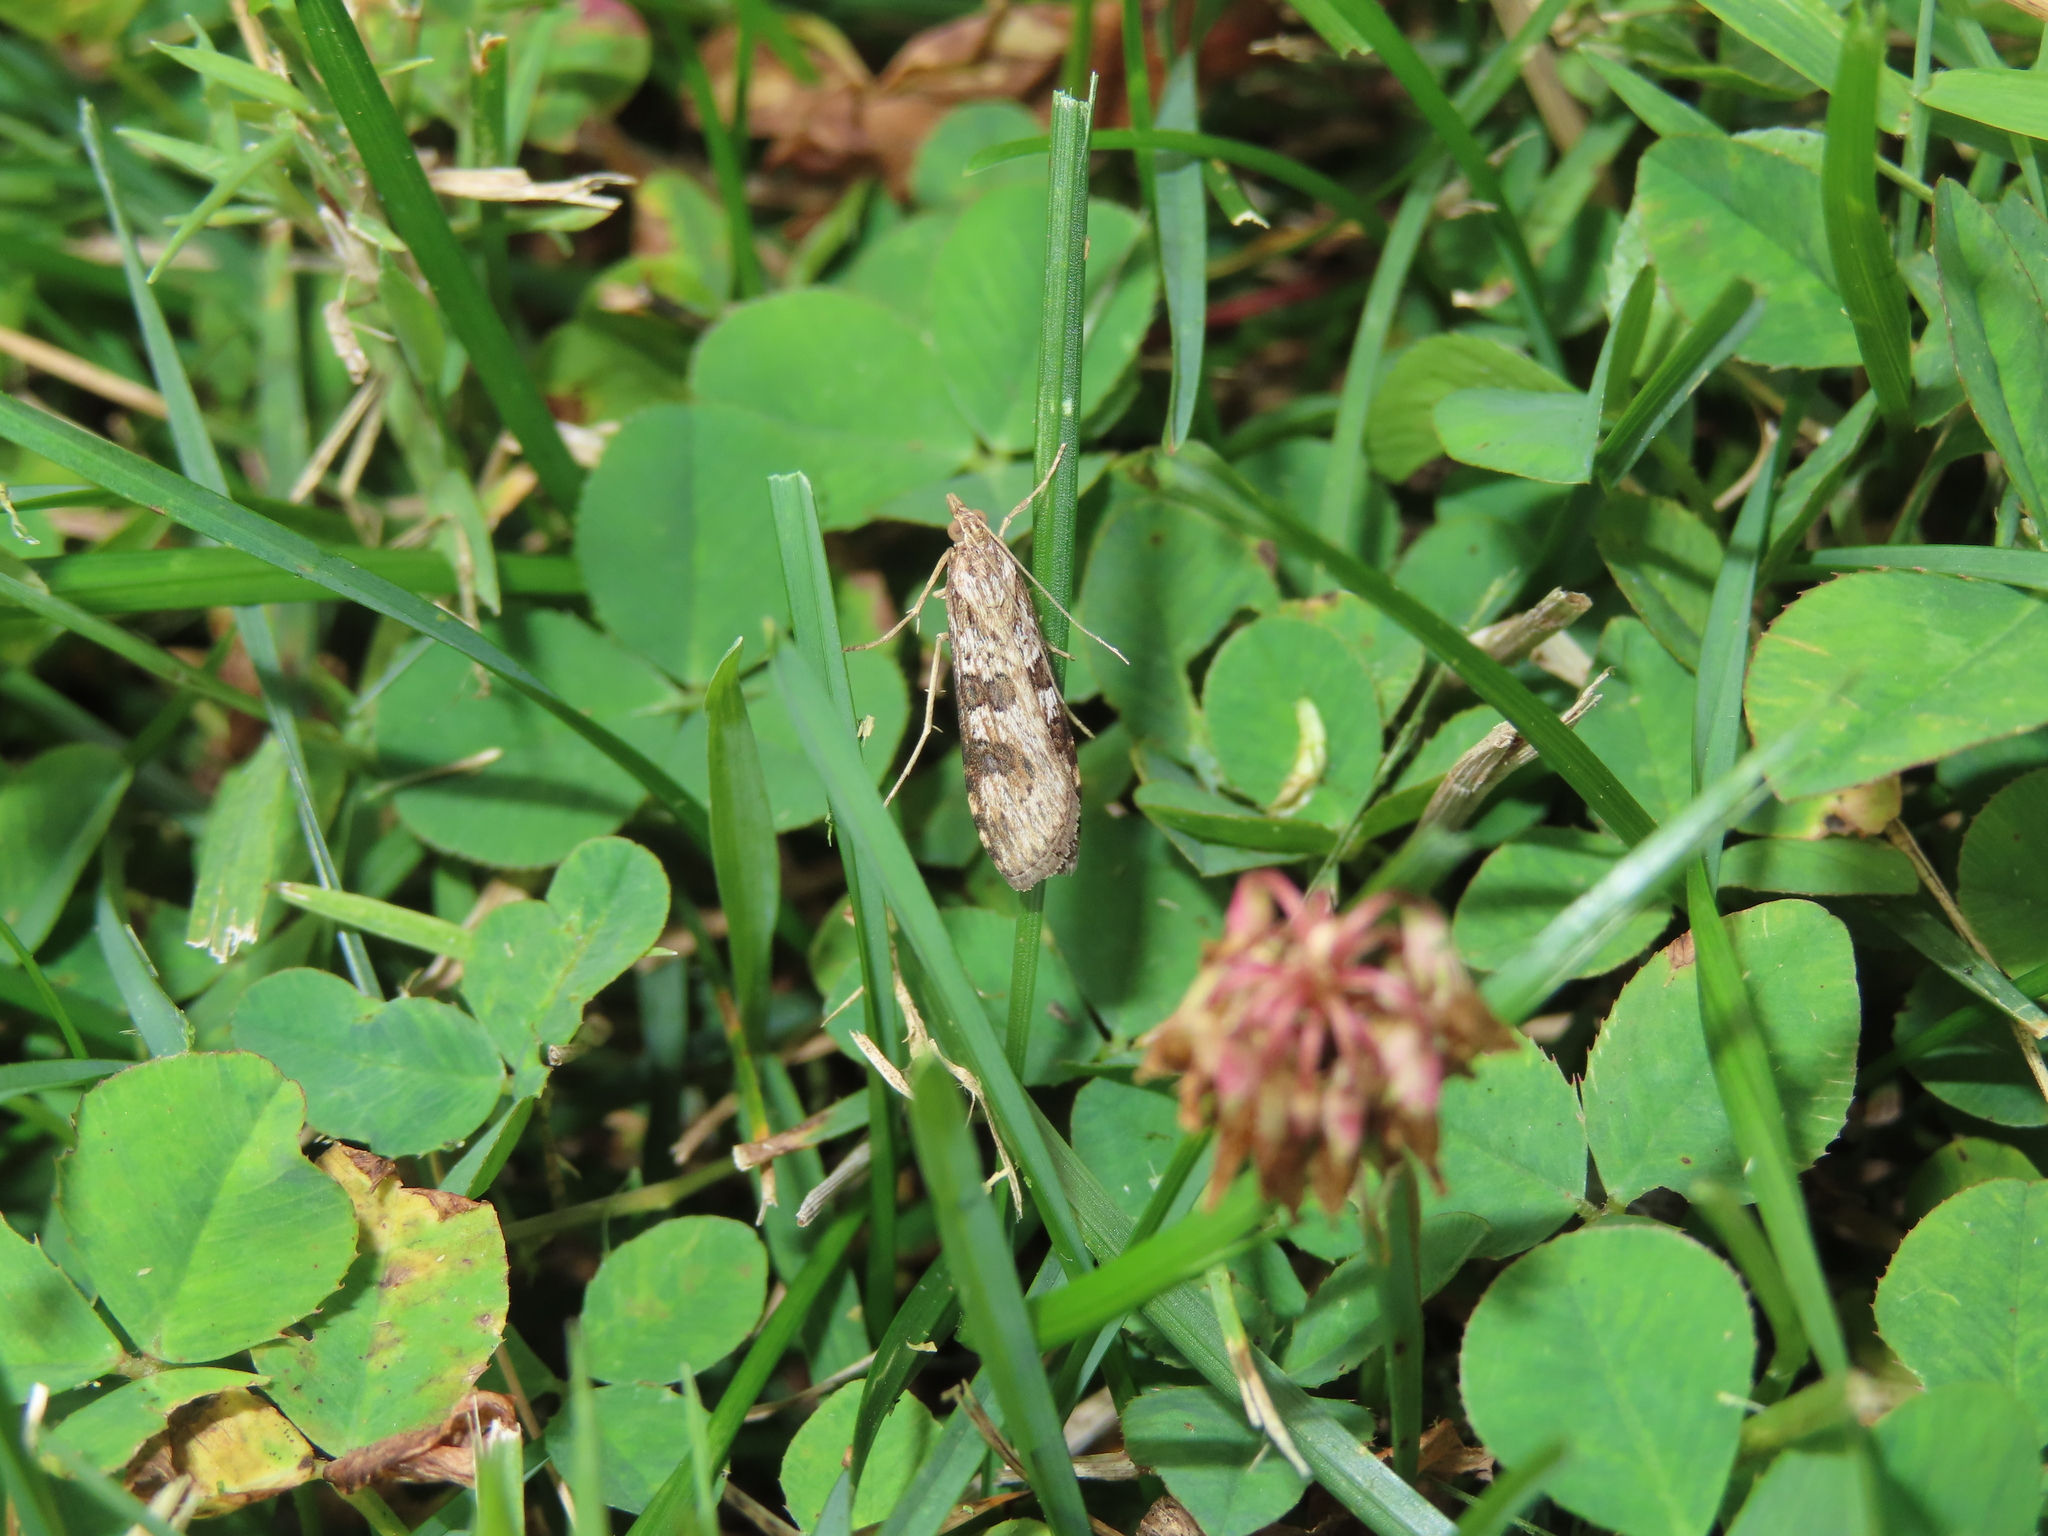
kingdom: Animalia
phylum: Arthropoda
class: Insecta
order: Lepidoptera
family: Crambidae
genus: Nomophila
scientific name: Nomophila nearctica
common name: American rush veneer
